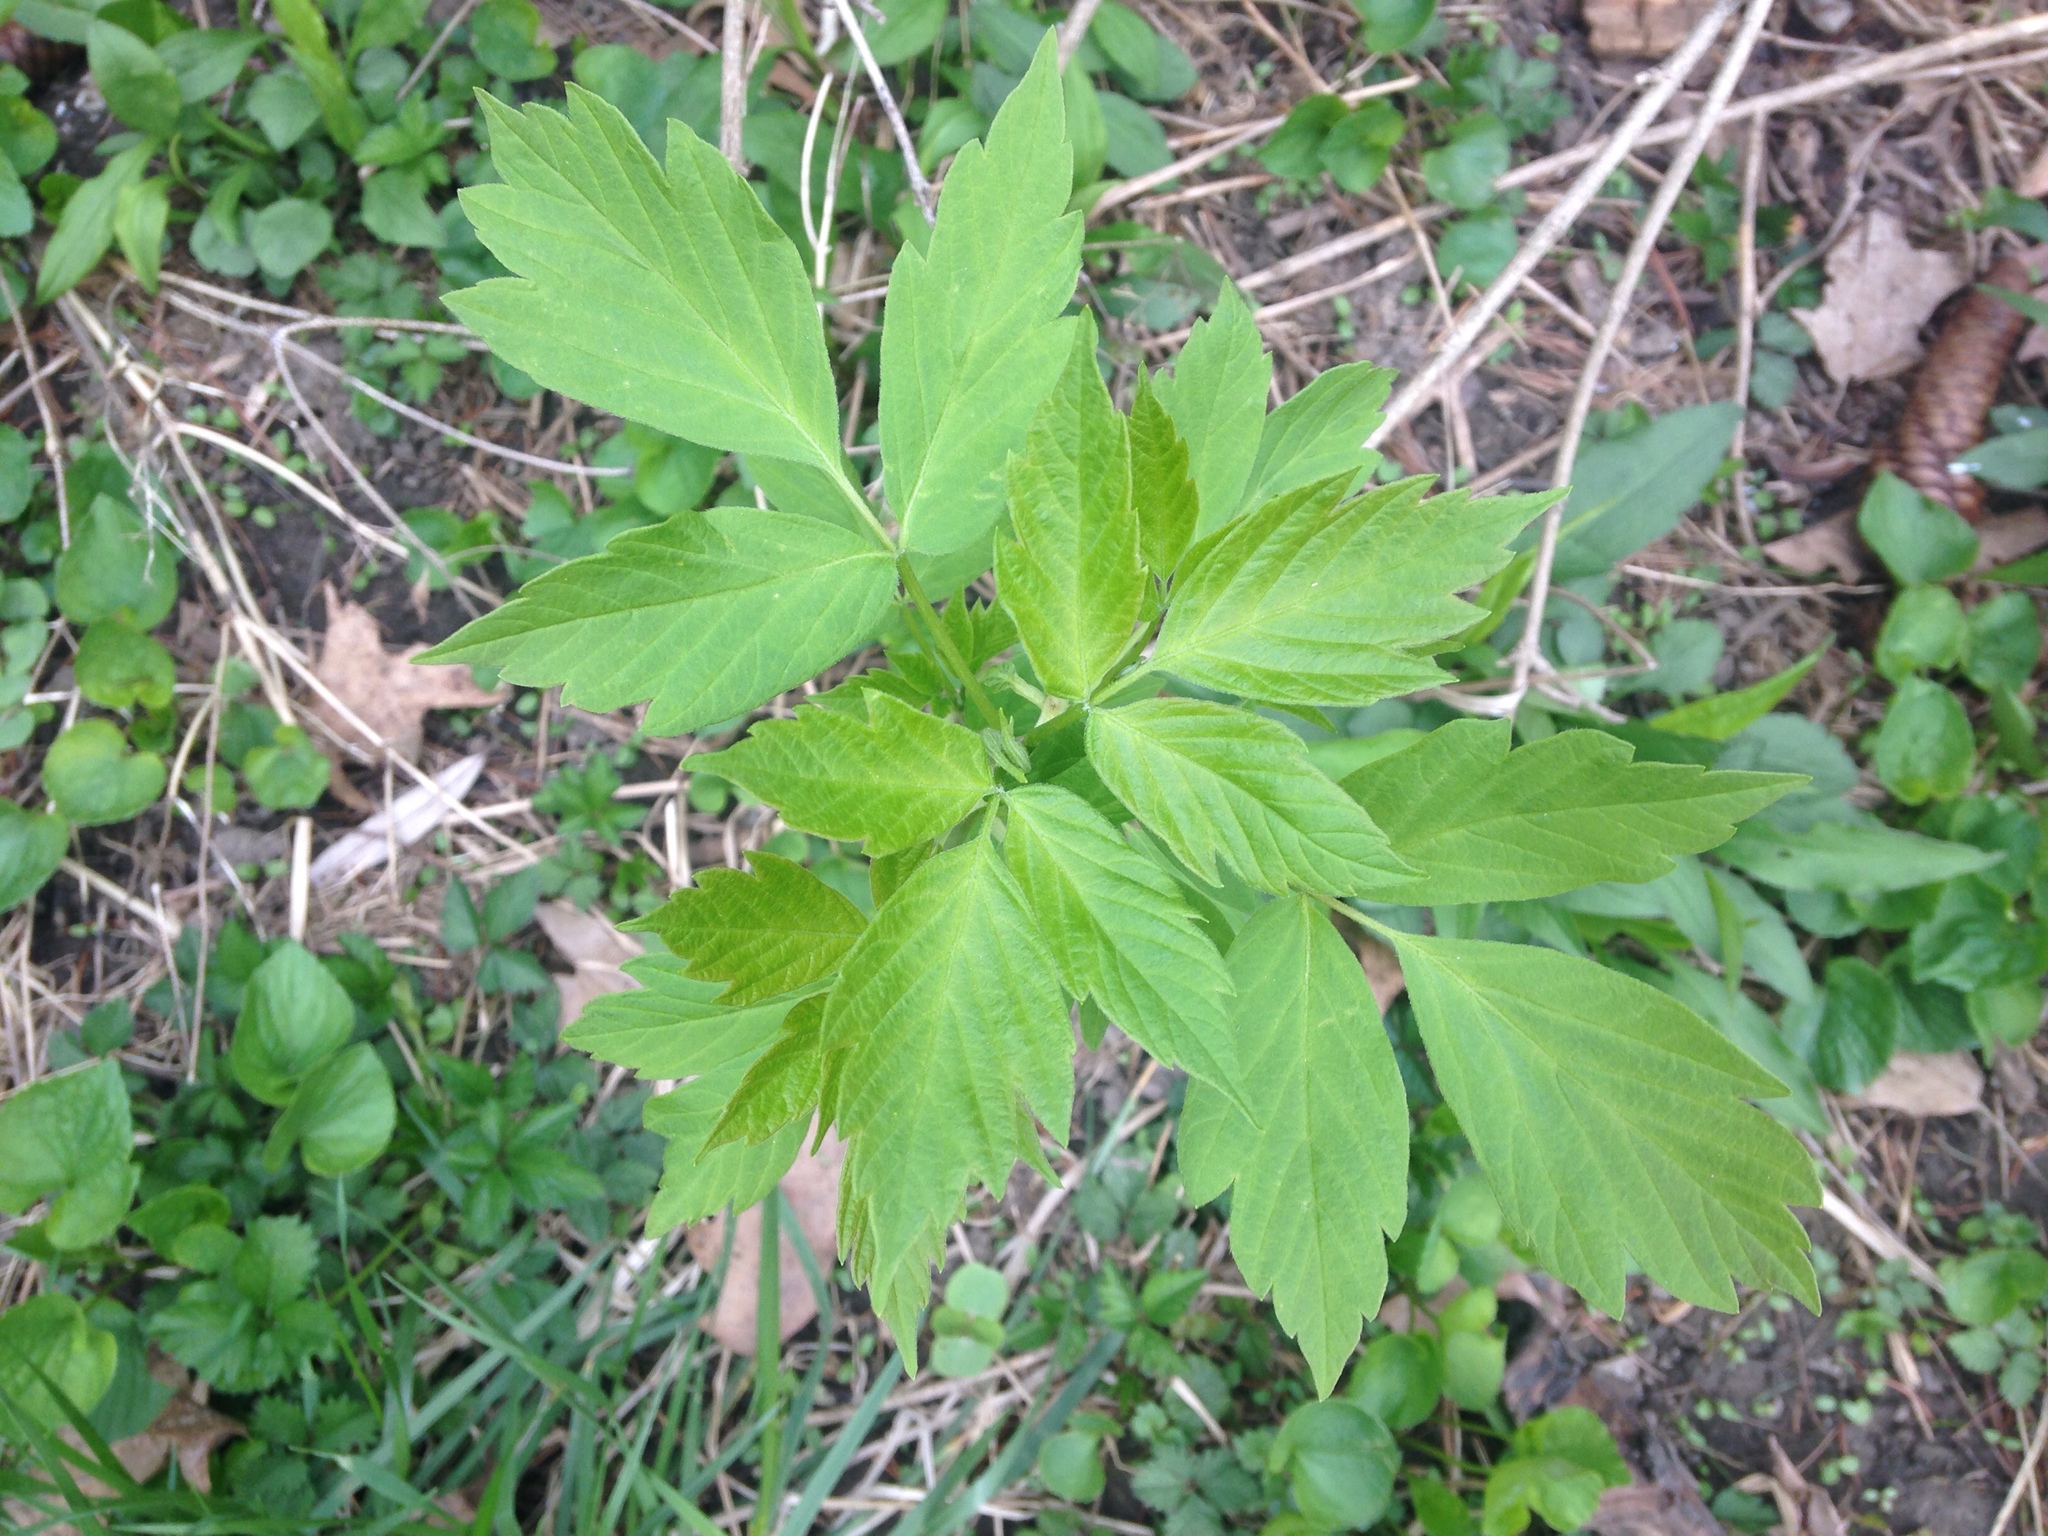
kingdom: Plantae
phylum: Tracheophyta
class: Magnoliopsida
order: Sapindales
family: Sapindaceae
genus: Acer
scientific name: Acer negundo
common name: Ashleaf maple
